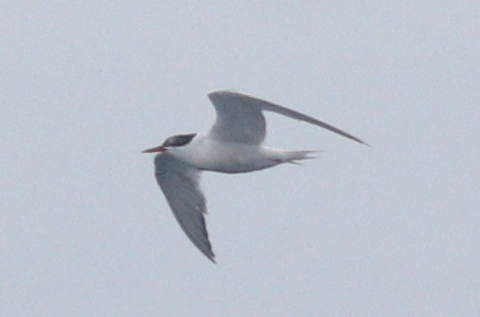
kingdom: Animalia
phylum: Chordata
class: Aves
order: Charadriiformes
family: Laridae
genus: Sterna
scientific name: Sterna hirundo
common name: Common tern
